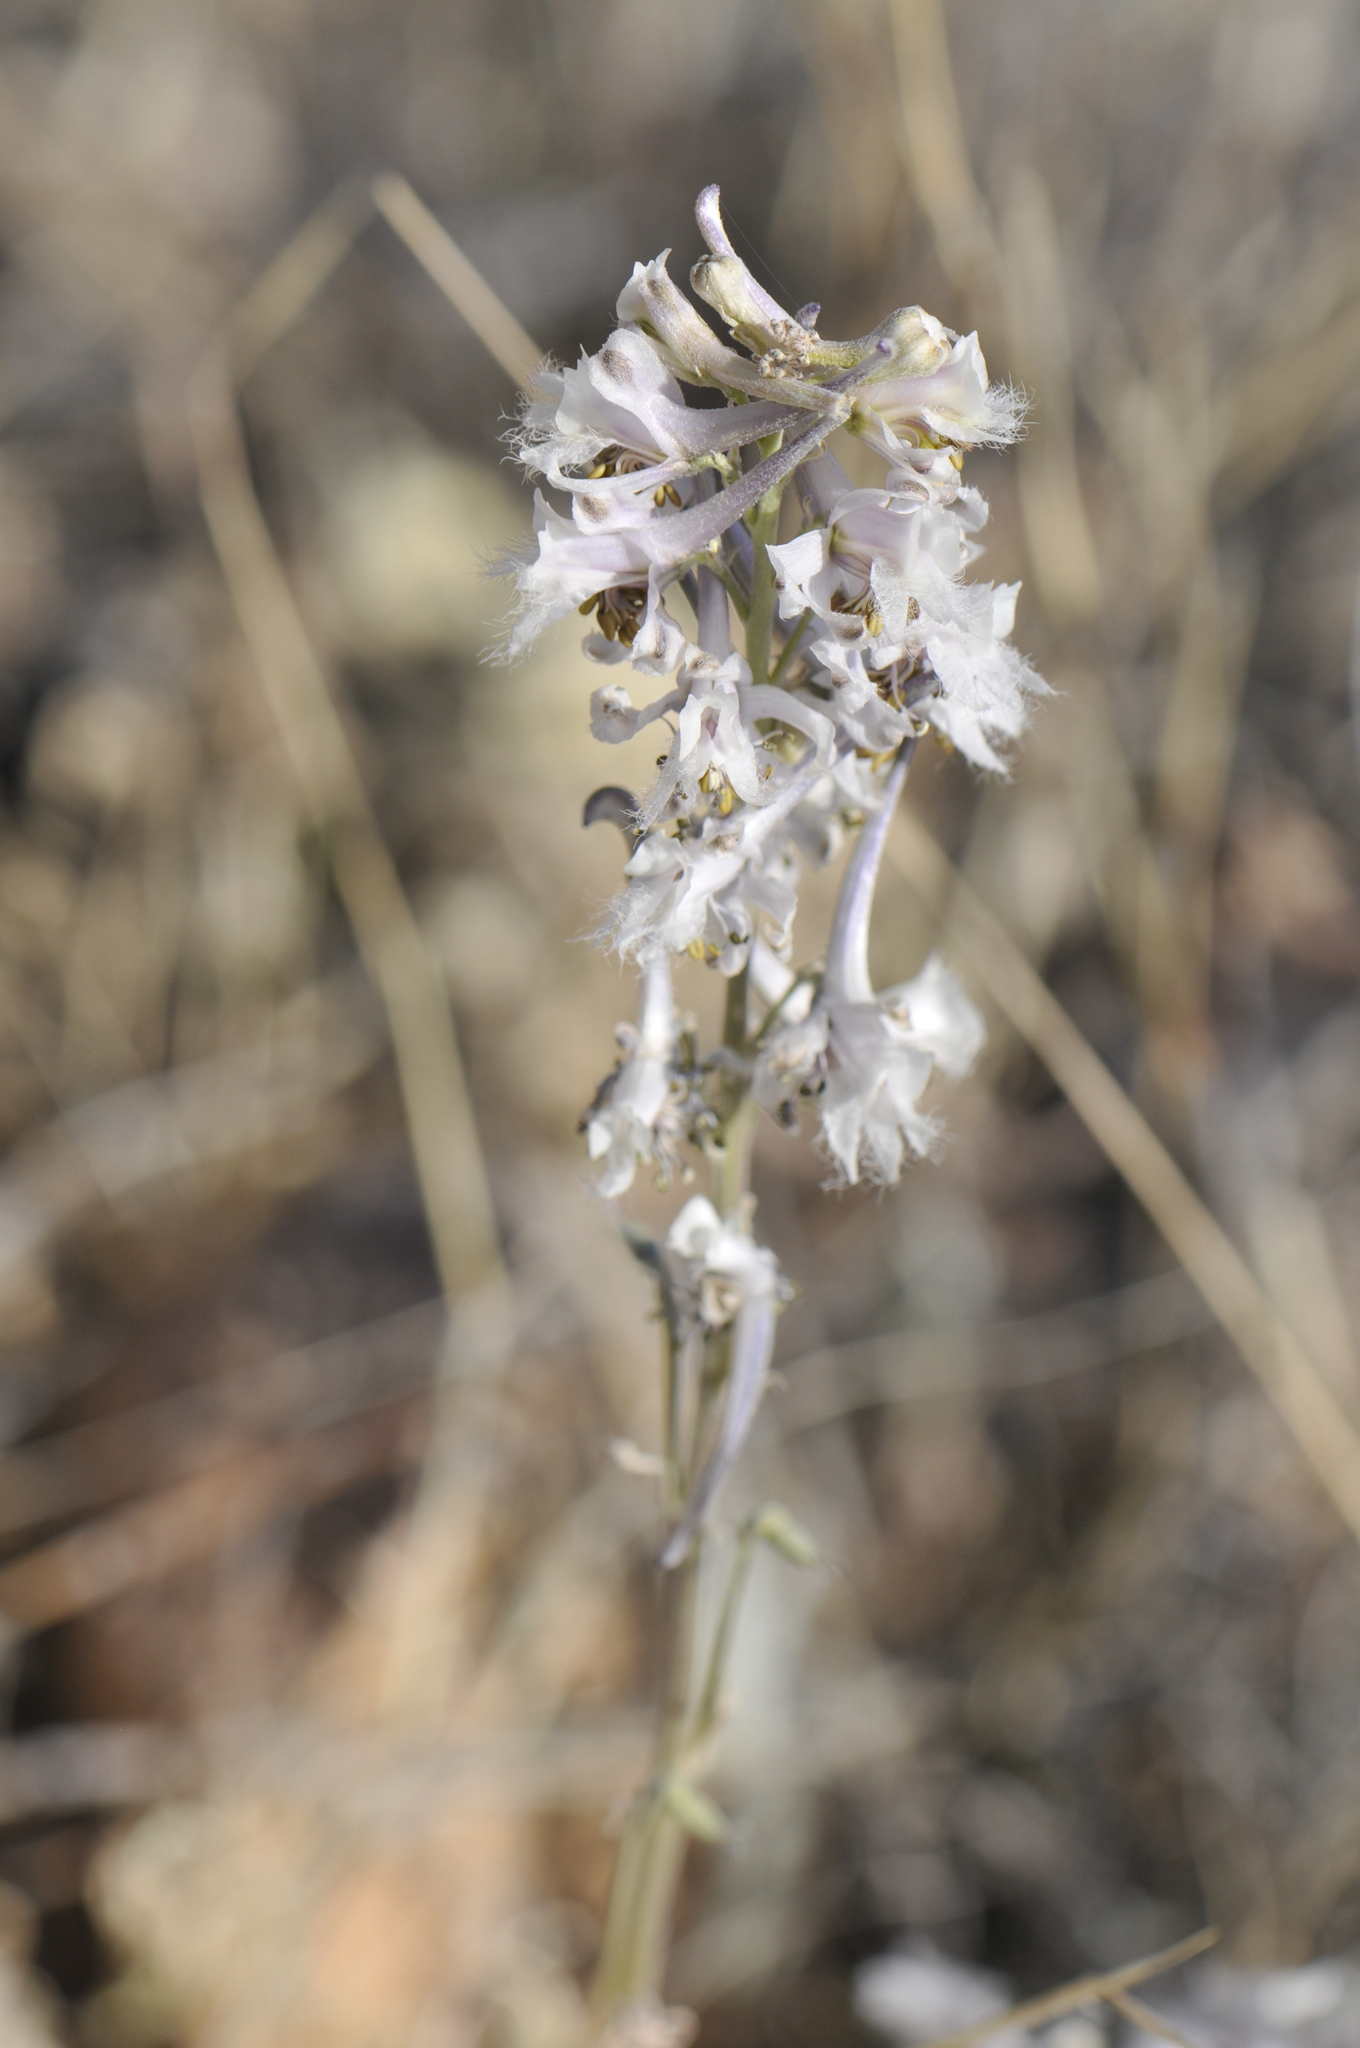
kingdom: Plantae
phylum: Tracheophyta
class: Magnoliopsida
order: Ranunculales
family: Ranunculaceae
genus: Delphinium
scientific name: Delphinium wootonii
